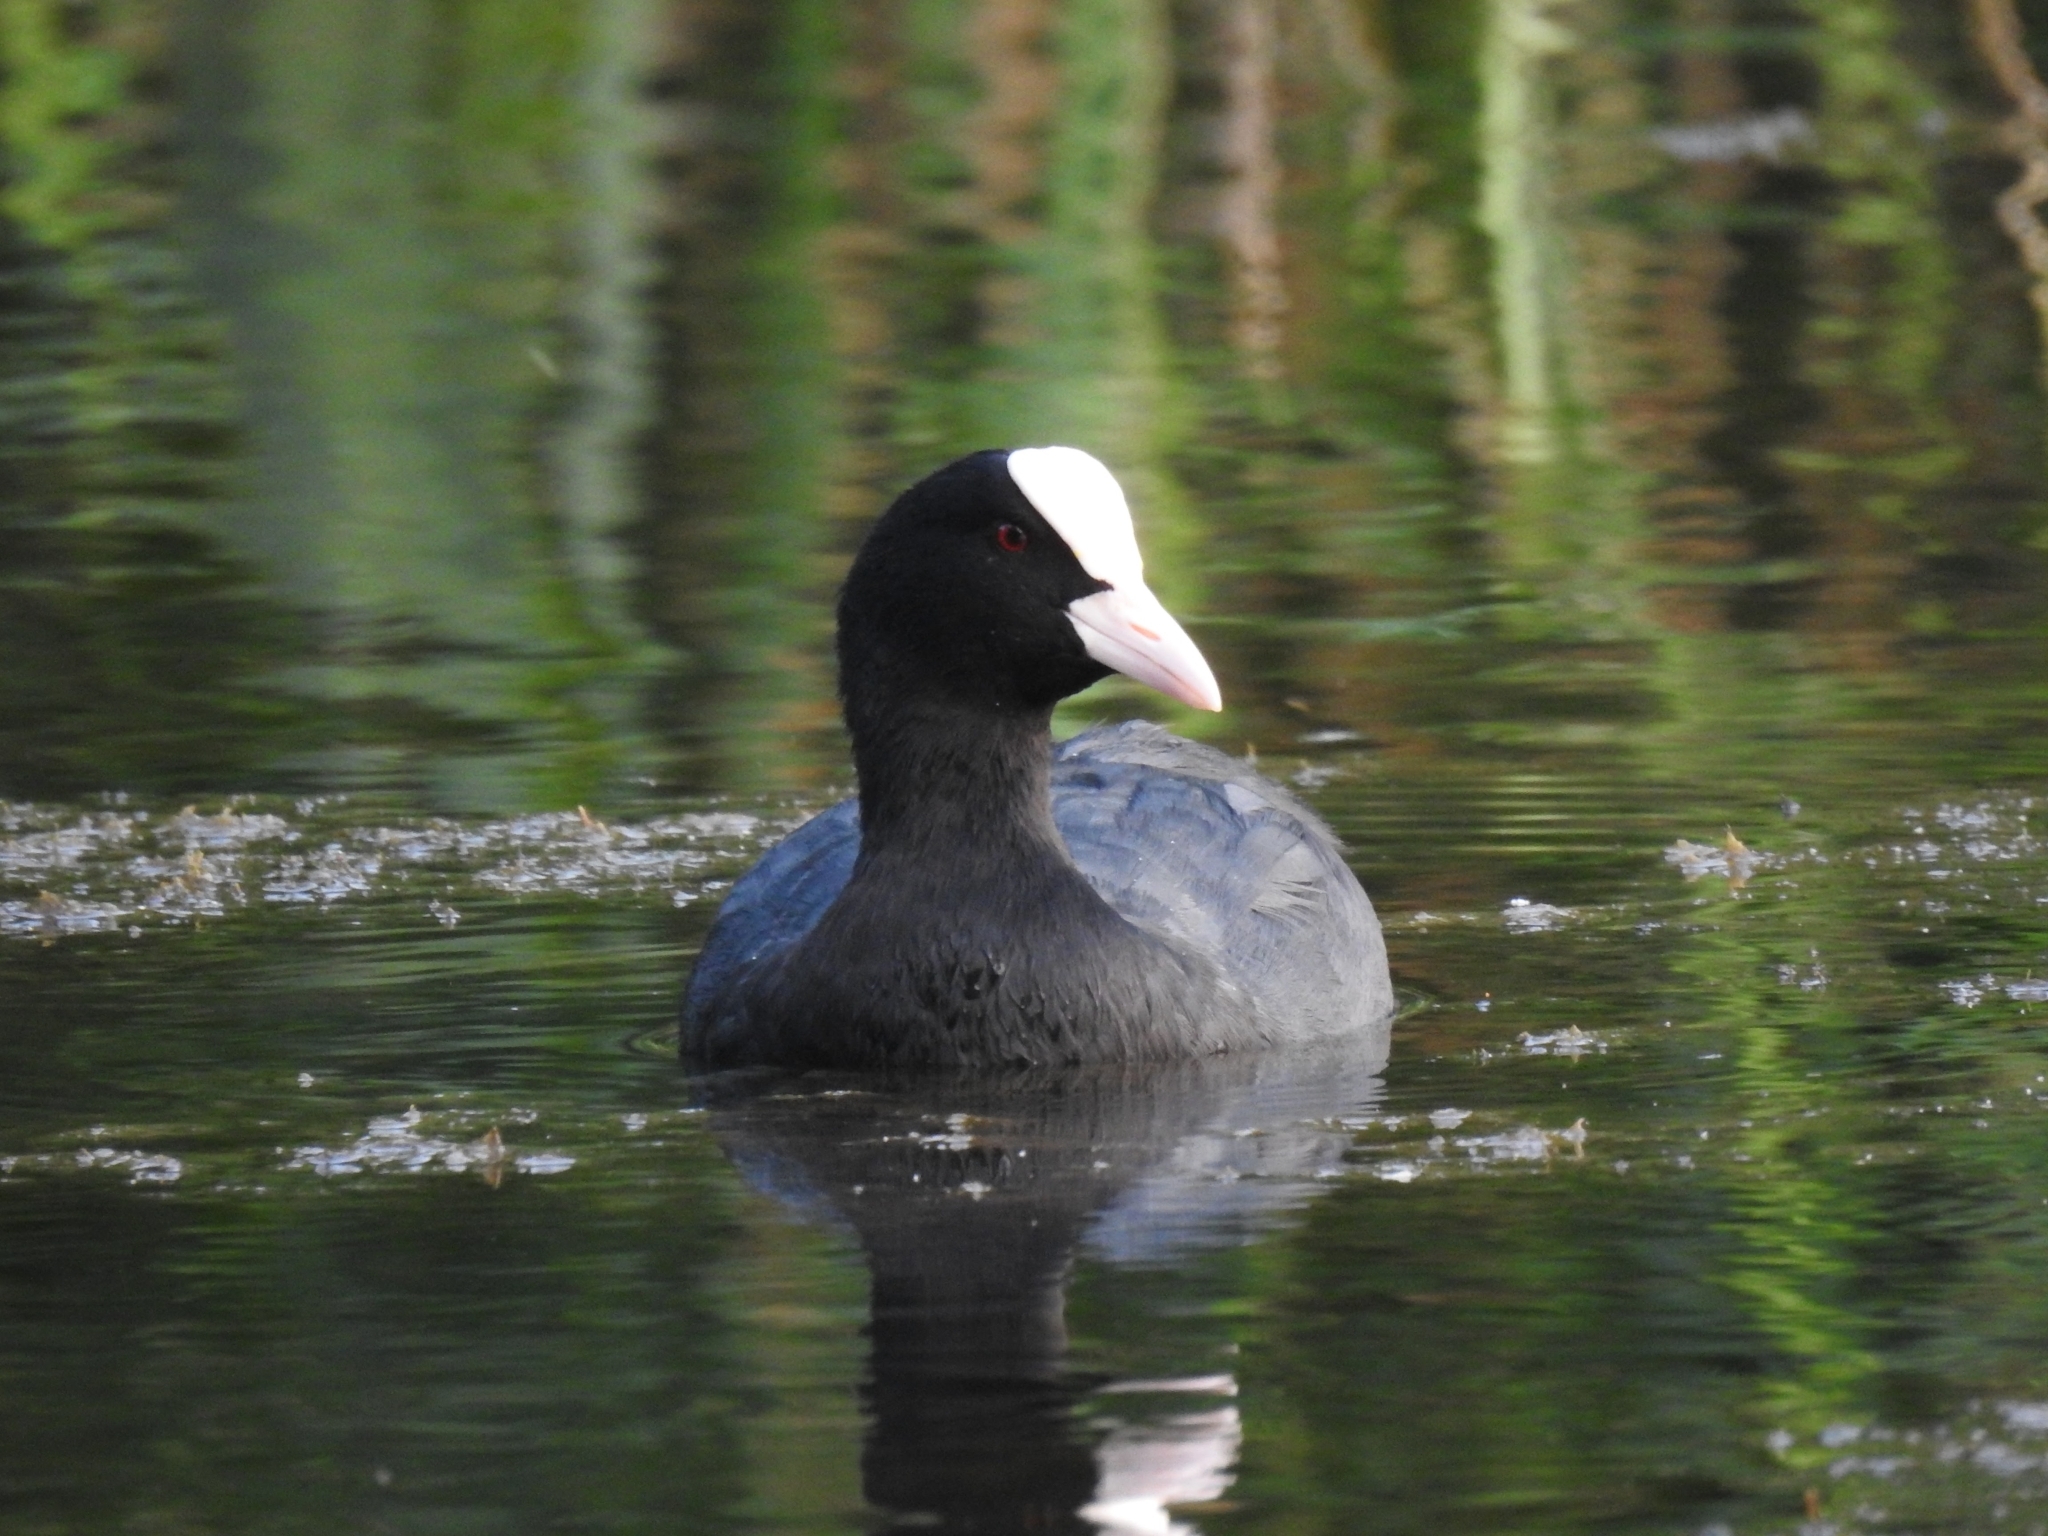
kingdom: Animalia
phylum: Chordata
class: Aves
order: Gruiformes
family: Rallidae
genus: Fulica
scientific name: Fulica atra
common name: Eurasian coot
